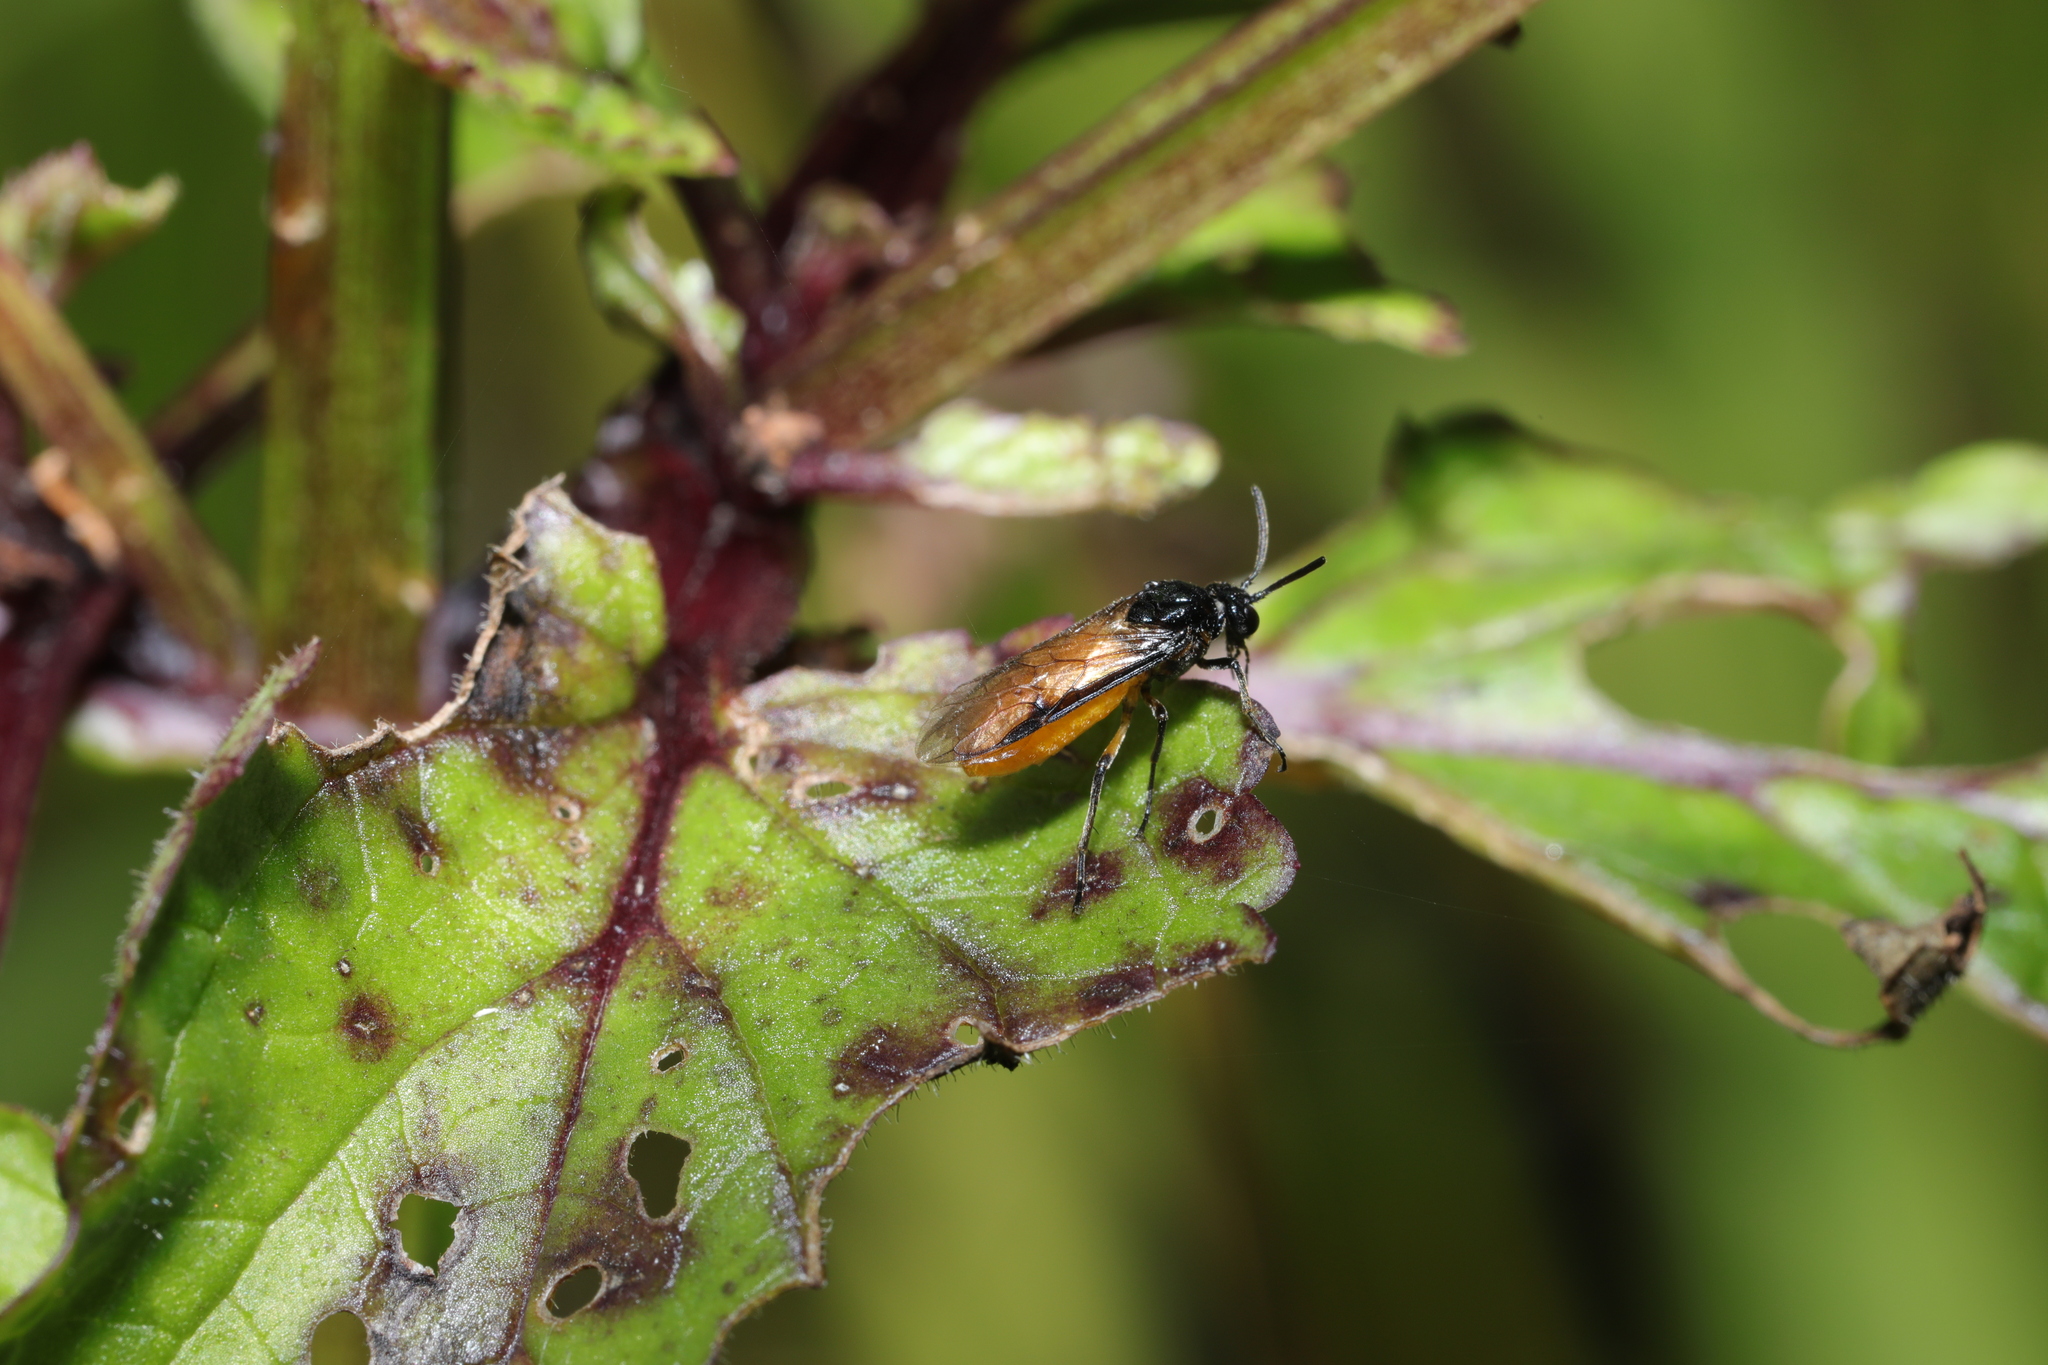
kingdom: Animalia
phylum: Arthropoda
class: Insecta
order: Hymenoptera
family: Argidae
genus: Arge
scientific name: Arge pagana
